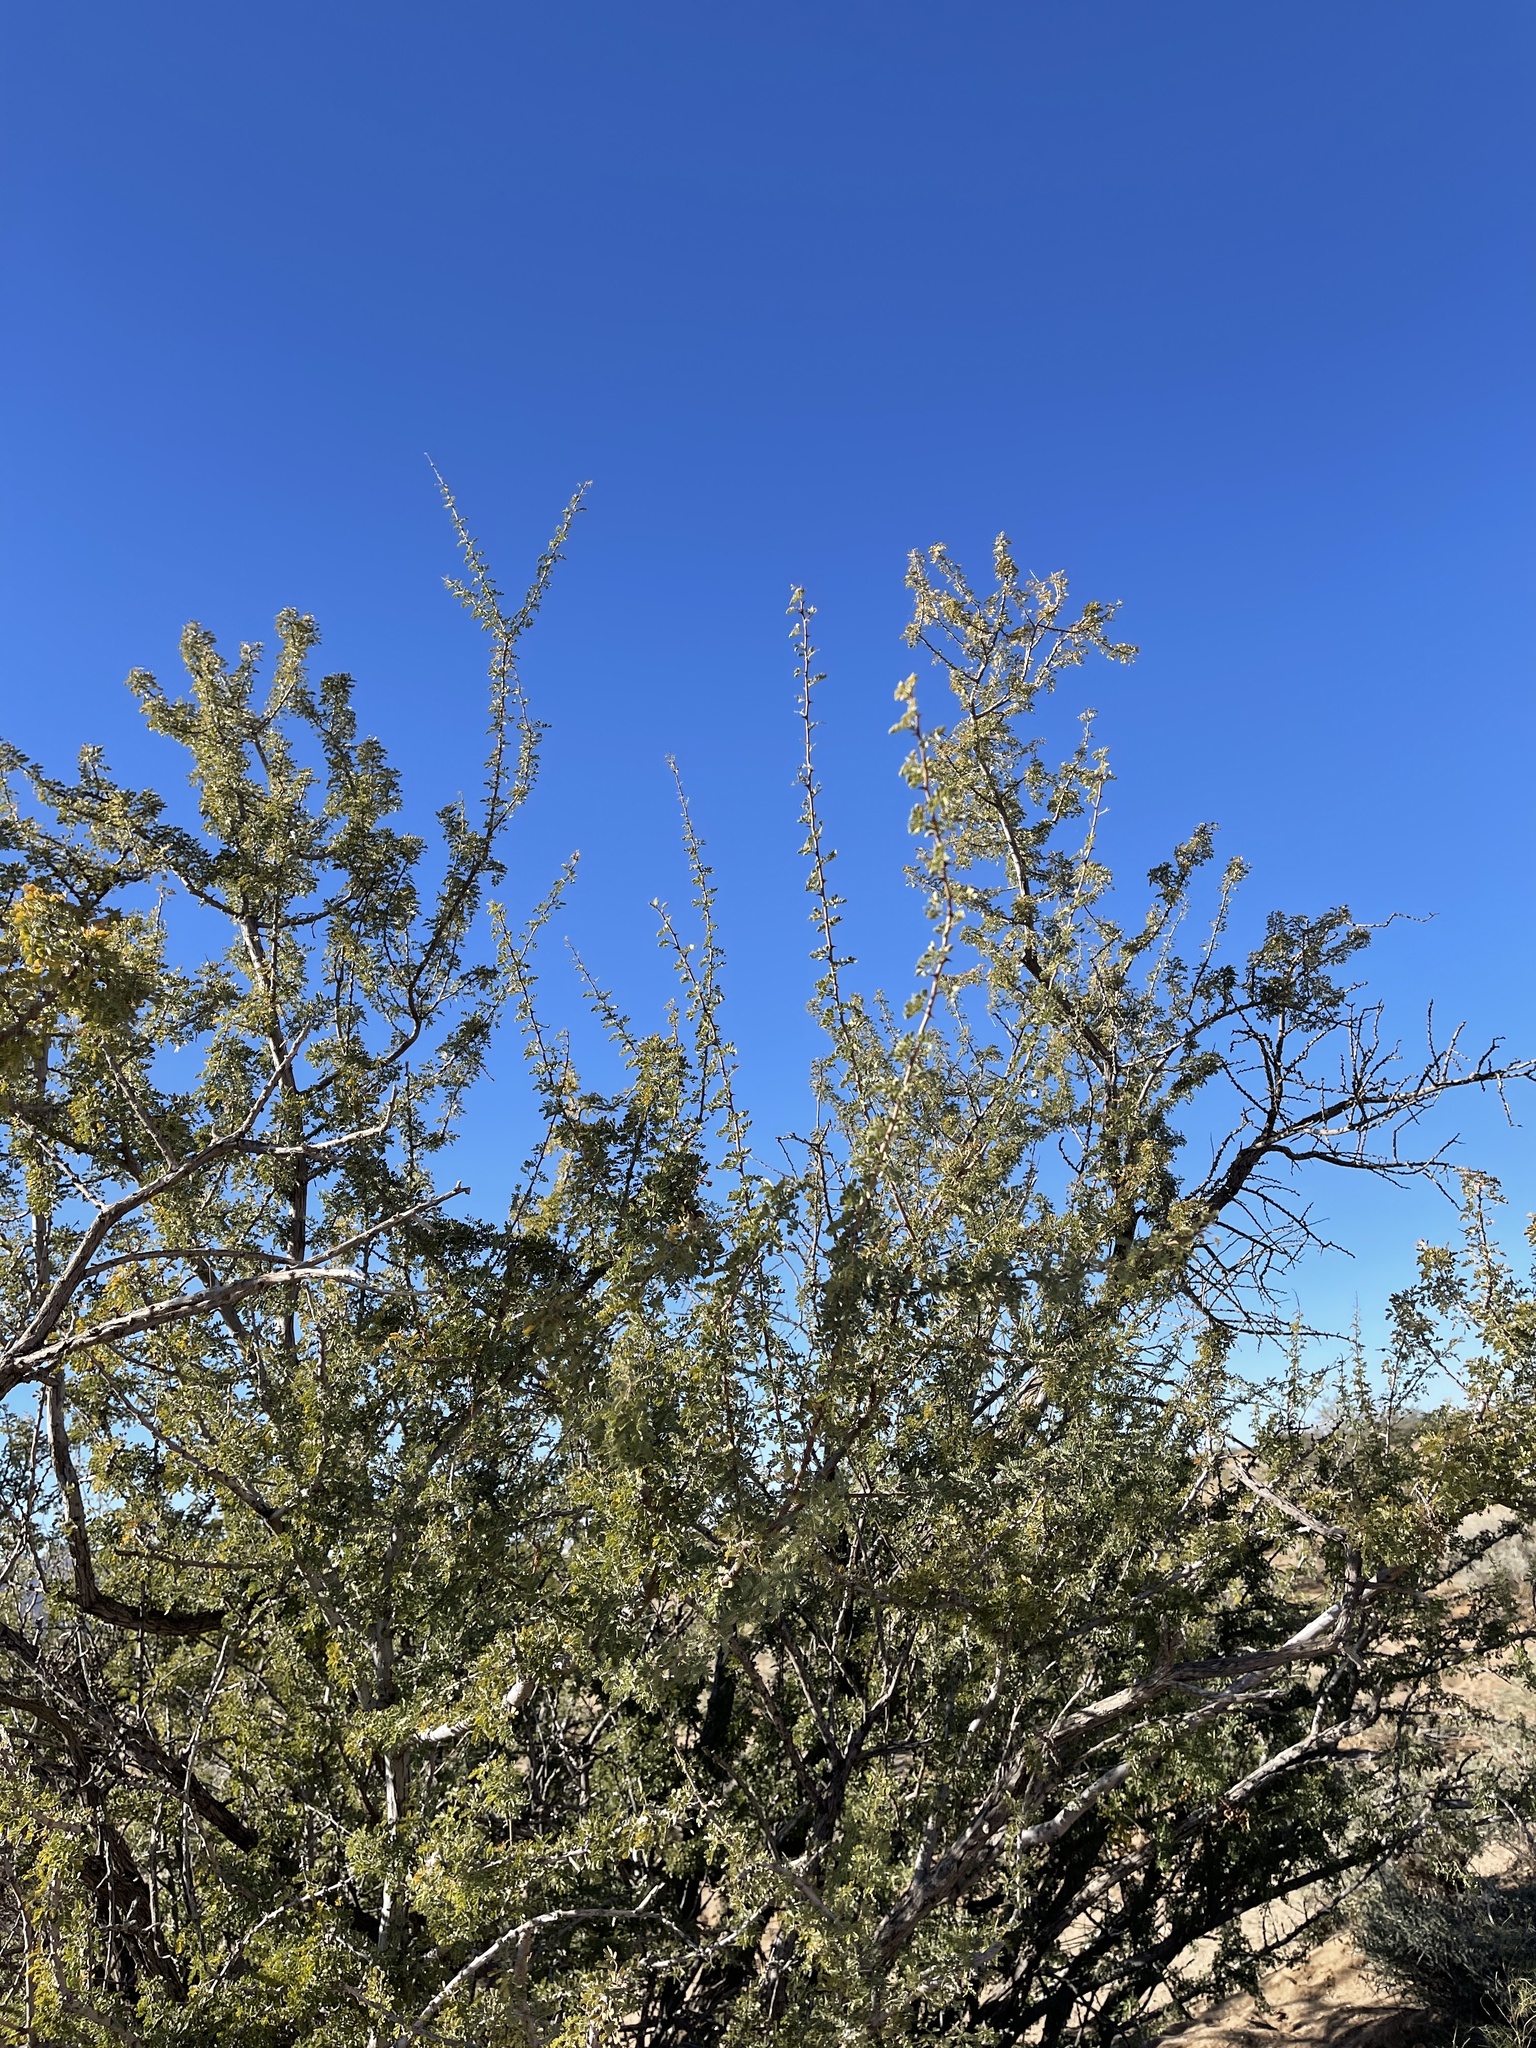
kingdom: Plantae
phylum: Tracheophyta
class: Magnoliopsida
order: Fabales
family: Fabaceae
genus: Senegalia
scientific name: Senegalia greggii
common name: Texas-mimosa
